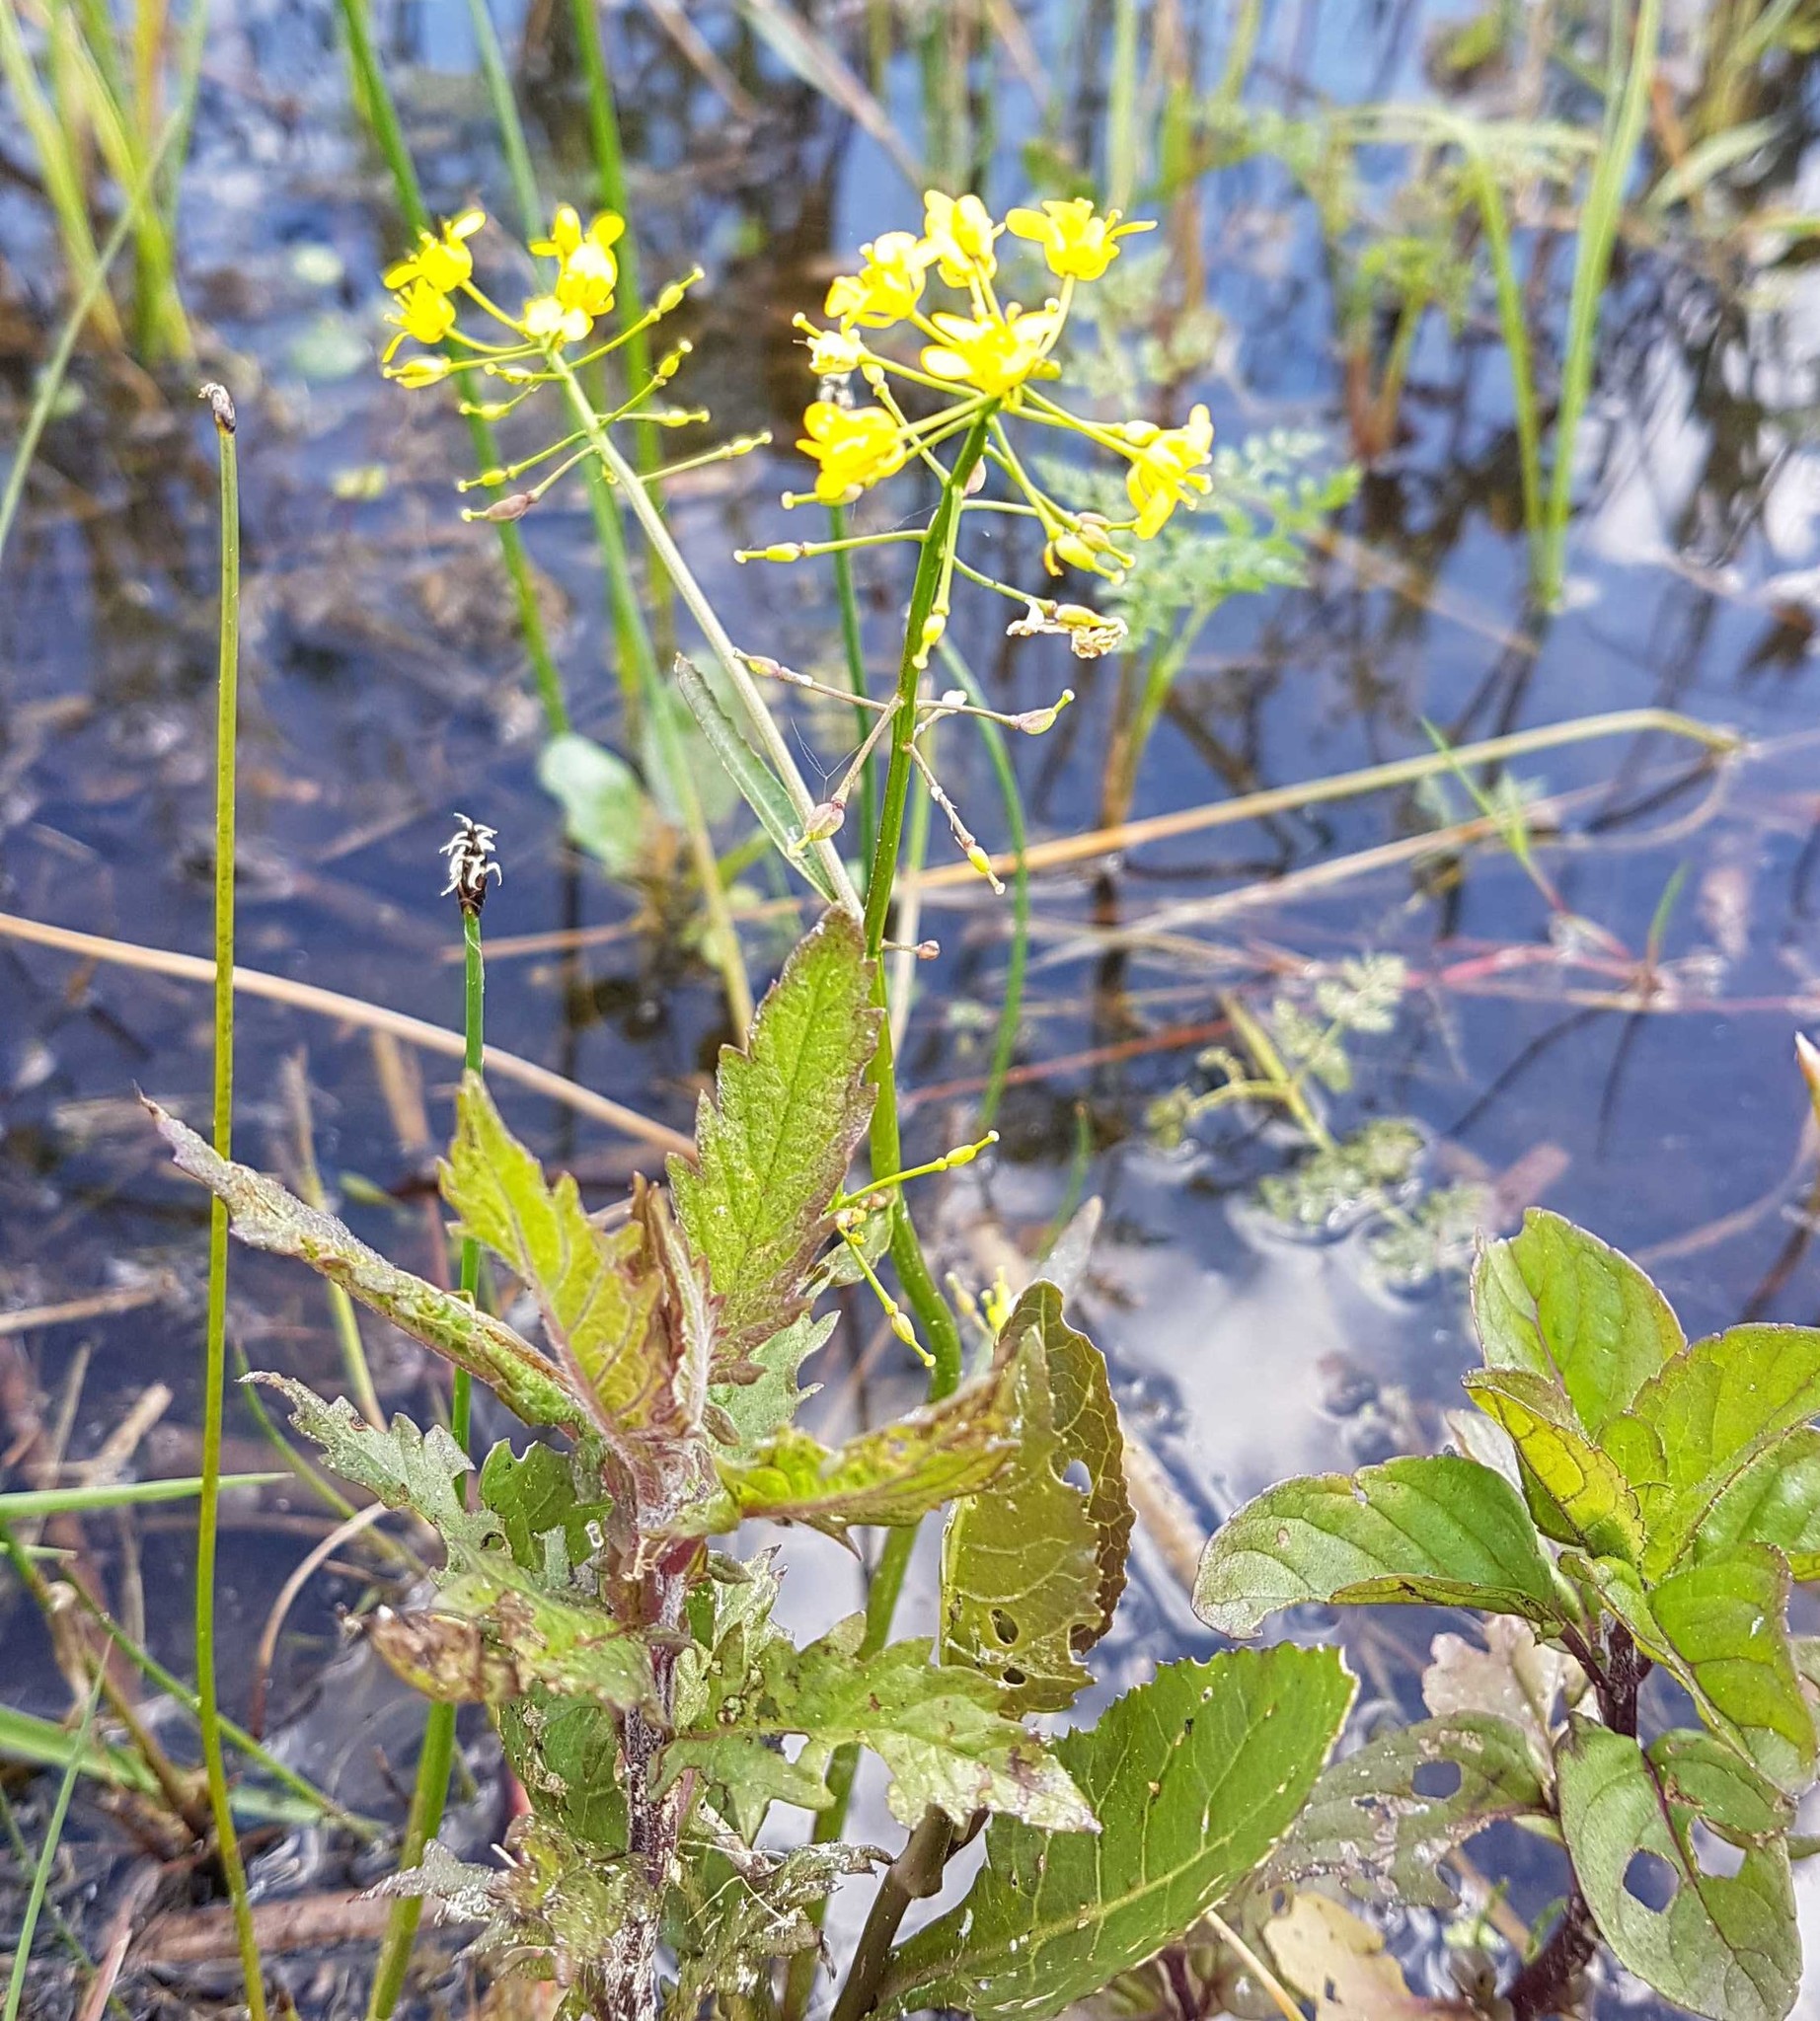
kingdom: Plantae
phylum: Tracheophyta
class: Magnoliopsida
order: Brassicales
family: Brassicaceae
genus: Rorippa
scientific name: Rorippa amphibia
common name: Great yellow-cress
